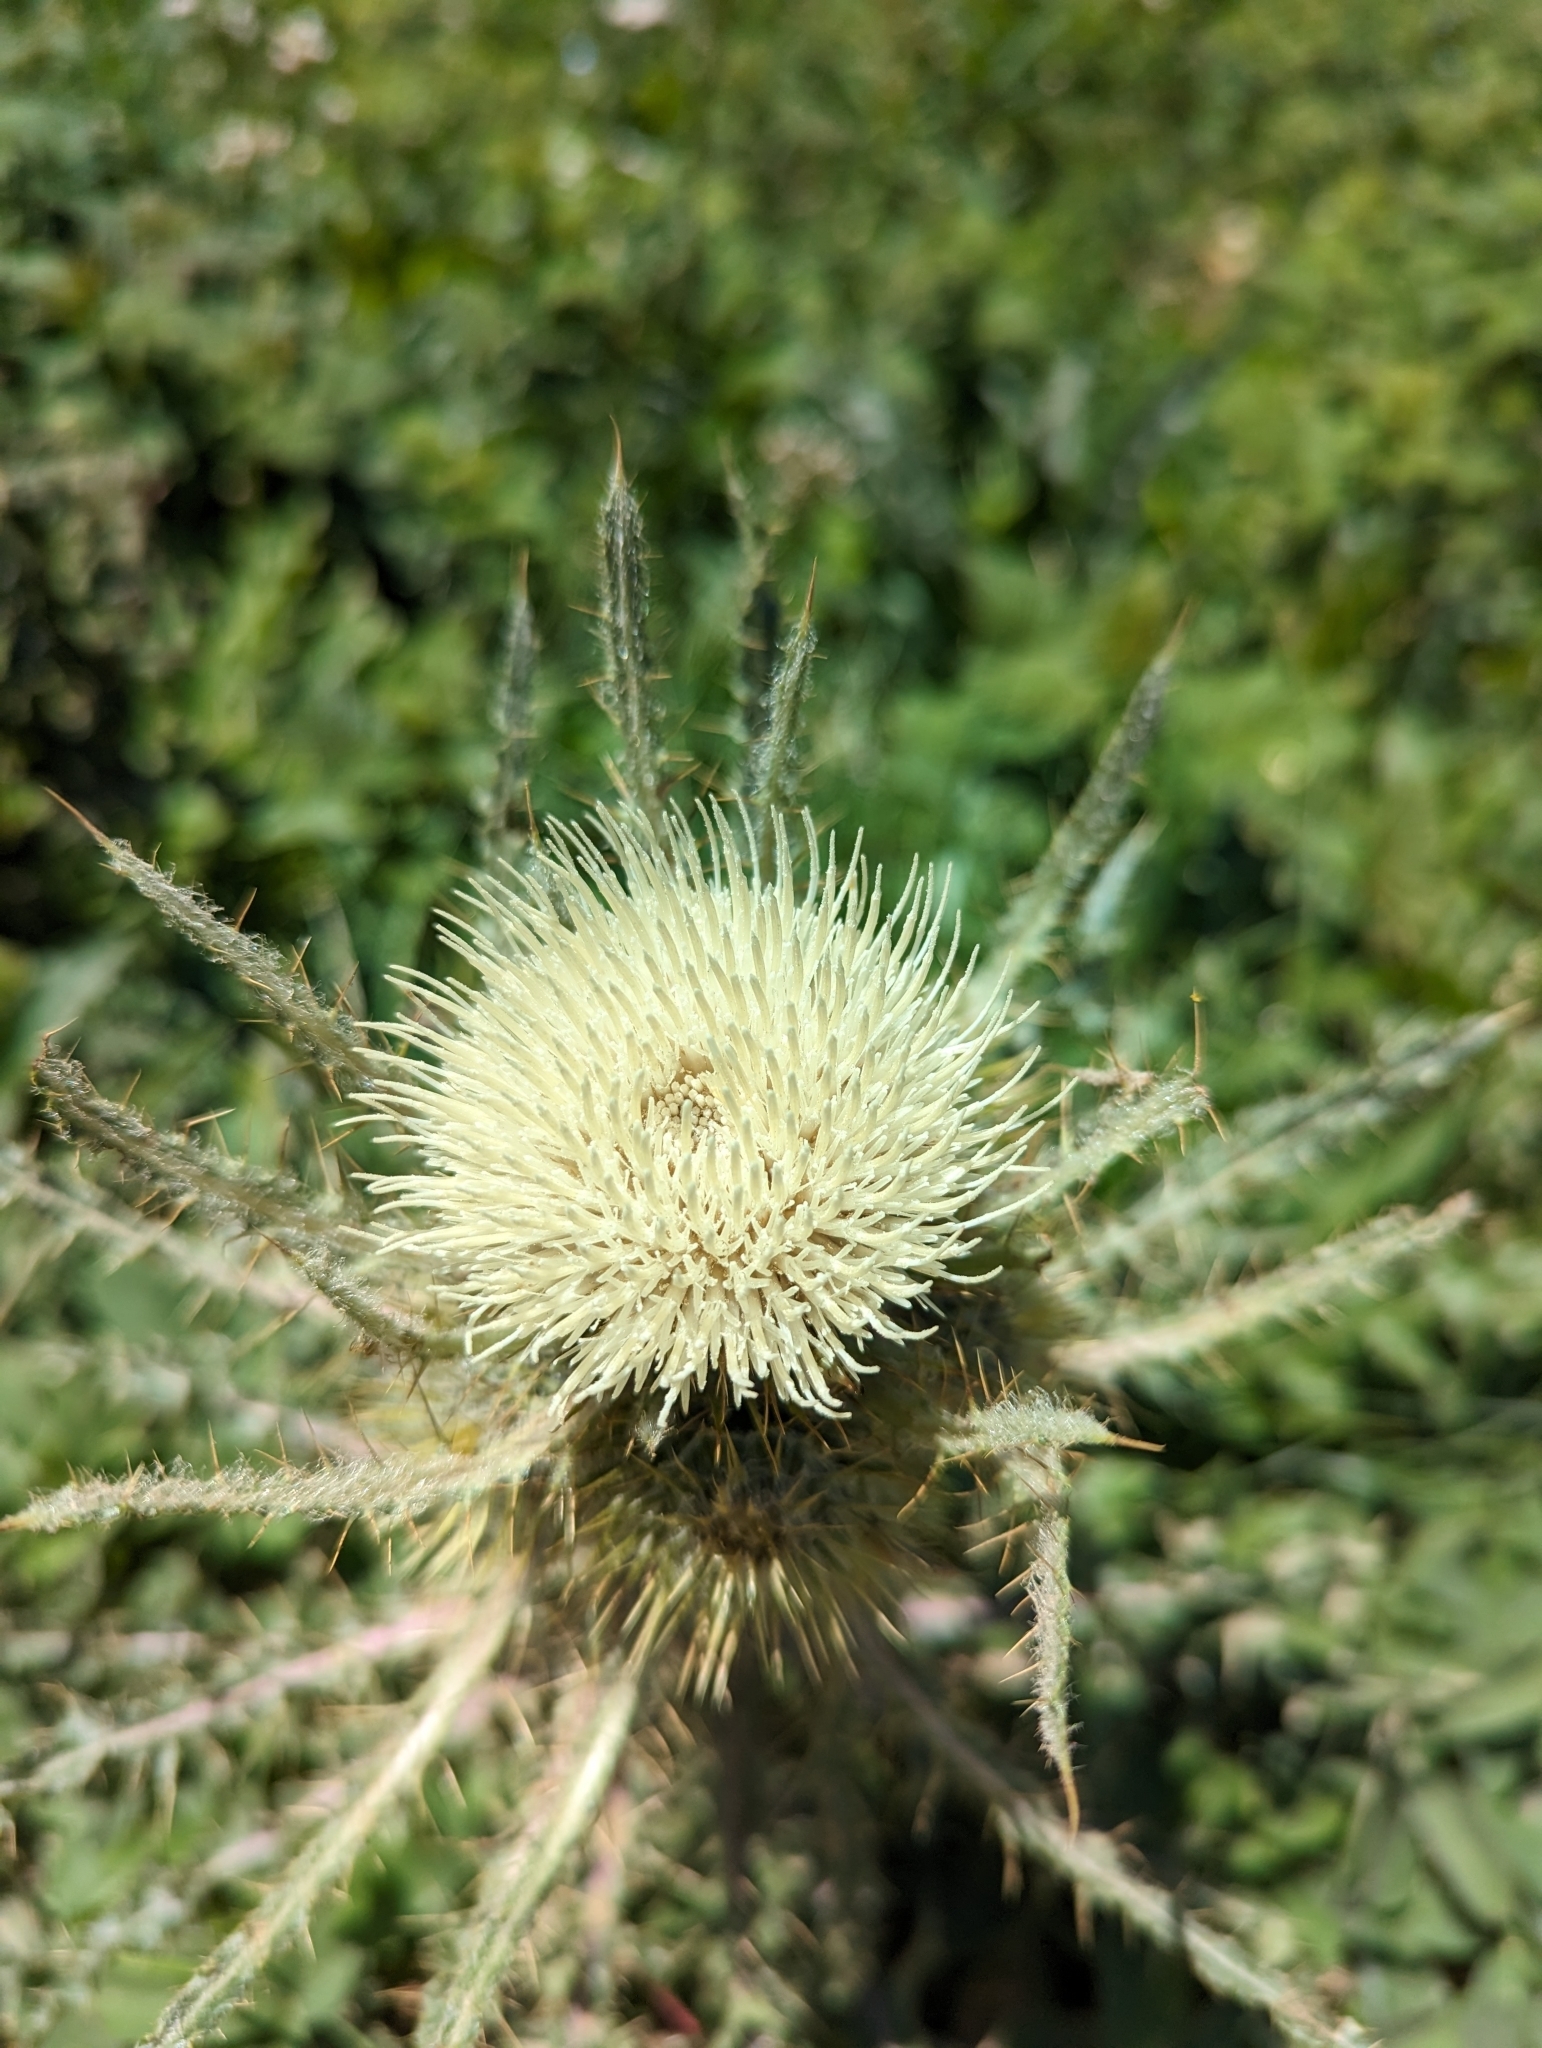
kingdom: Plantae
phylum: Tracheophyta
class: Magnoliopsida
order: Asterales
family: Asteraceae
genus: Cirsium
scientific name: Cirsium hookerianum
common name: Hooker's thistle
